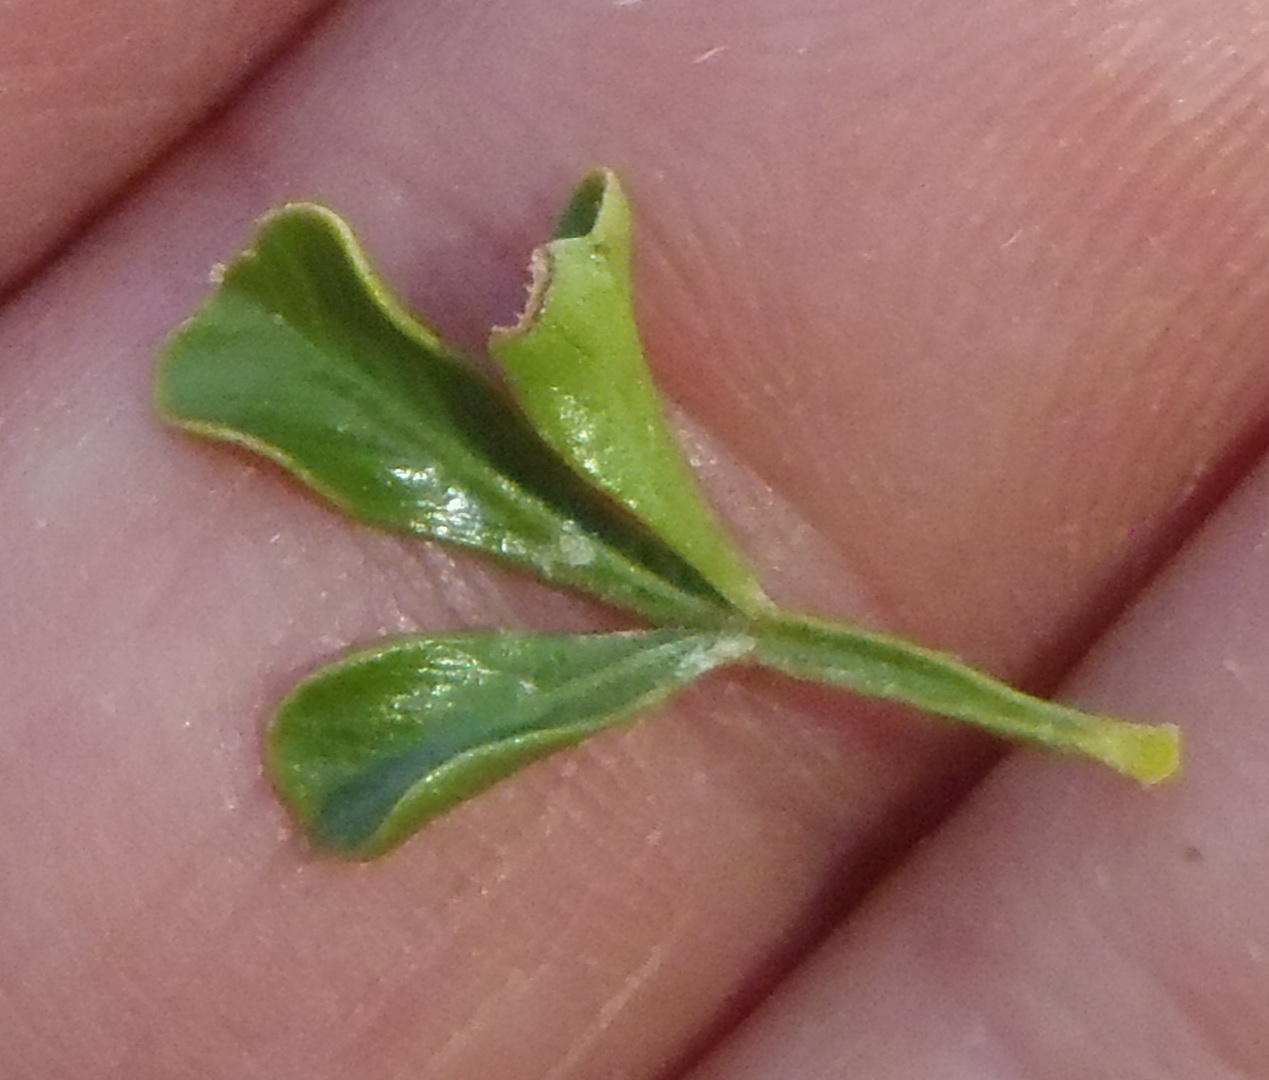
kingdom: Plantae
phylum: Tracheophyta
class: Magnoliopsida
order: Sapindales
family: Anacardiaceae
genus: Searsia
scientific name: Searsia burchellii
